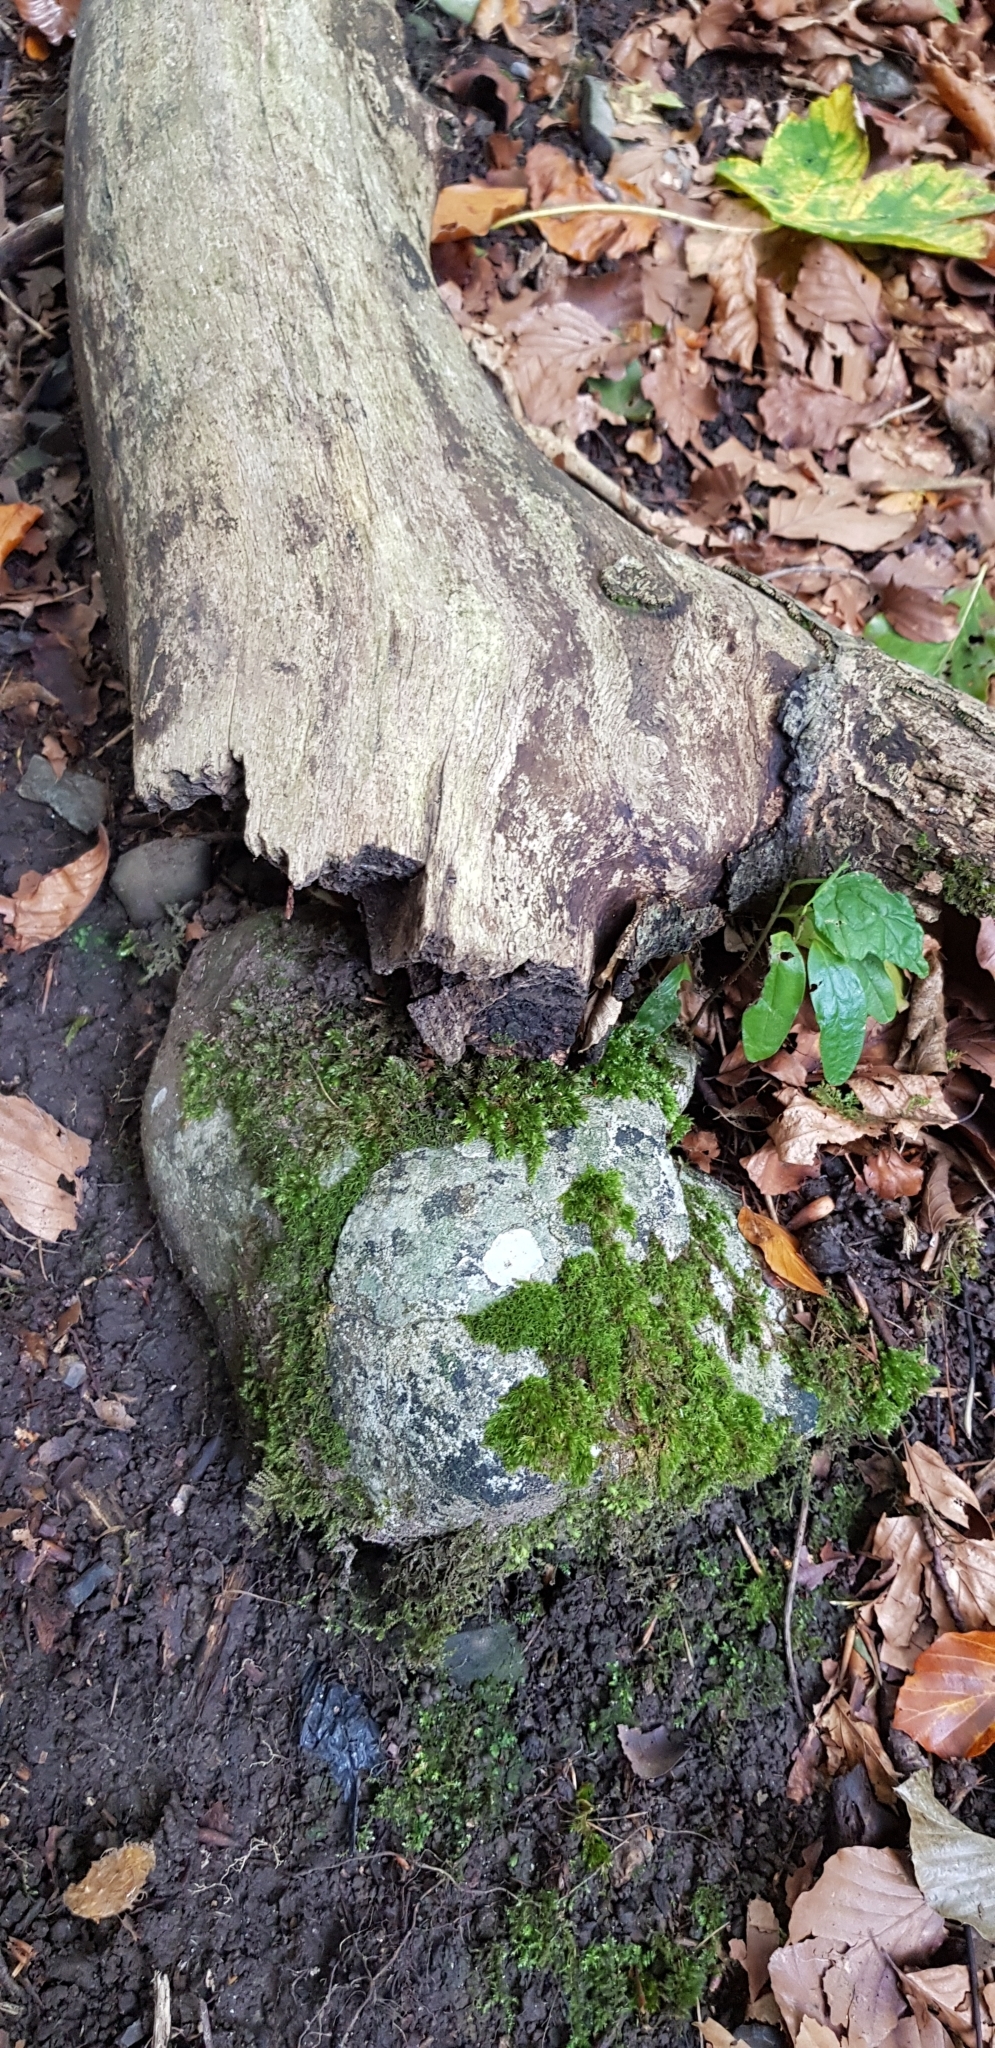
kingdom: Plantae
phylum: Bryophyta
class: Bryopsida
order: Hypnales
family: Brachytheciaceae
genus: Rhynchostegiella
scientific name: Rhynchostegiella tenella
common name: Tender feather-moss
